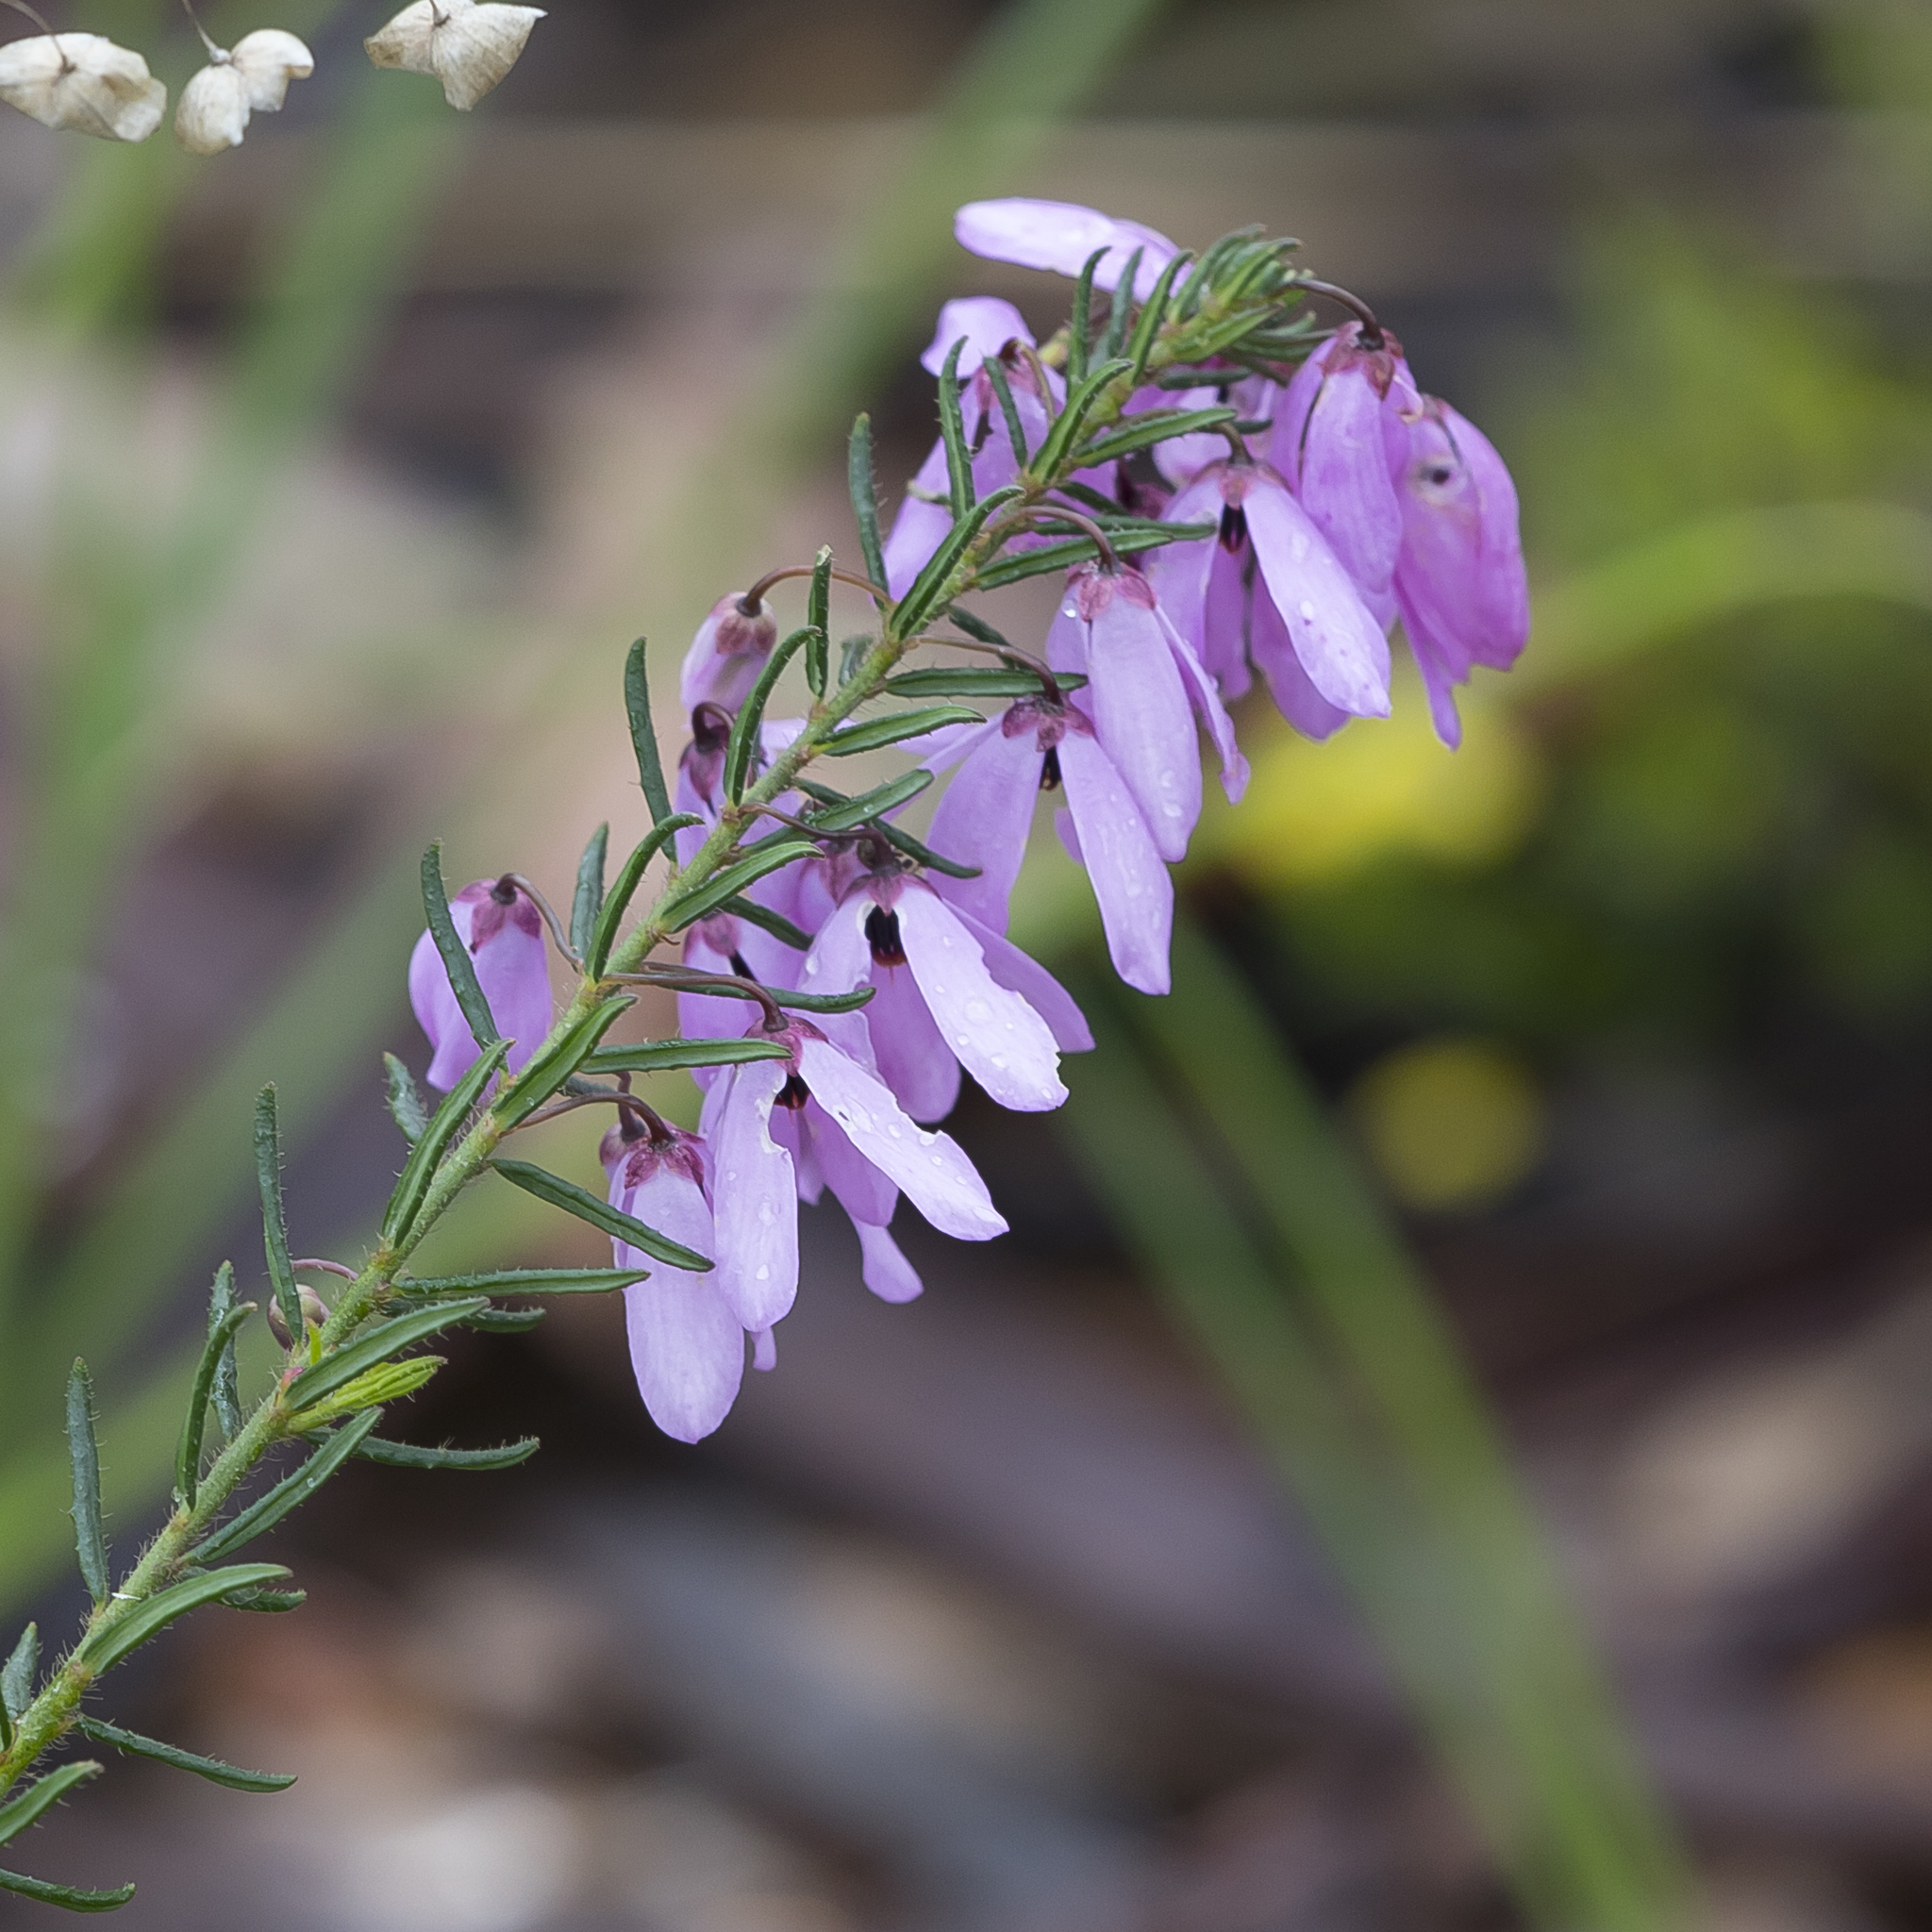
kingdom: Plantae
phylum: Tracheophyta
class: Magnoliopsida
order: Oxalidales
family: Elaeocarpaceae
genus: Tetratheca
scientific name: Tetratheca pilosa
